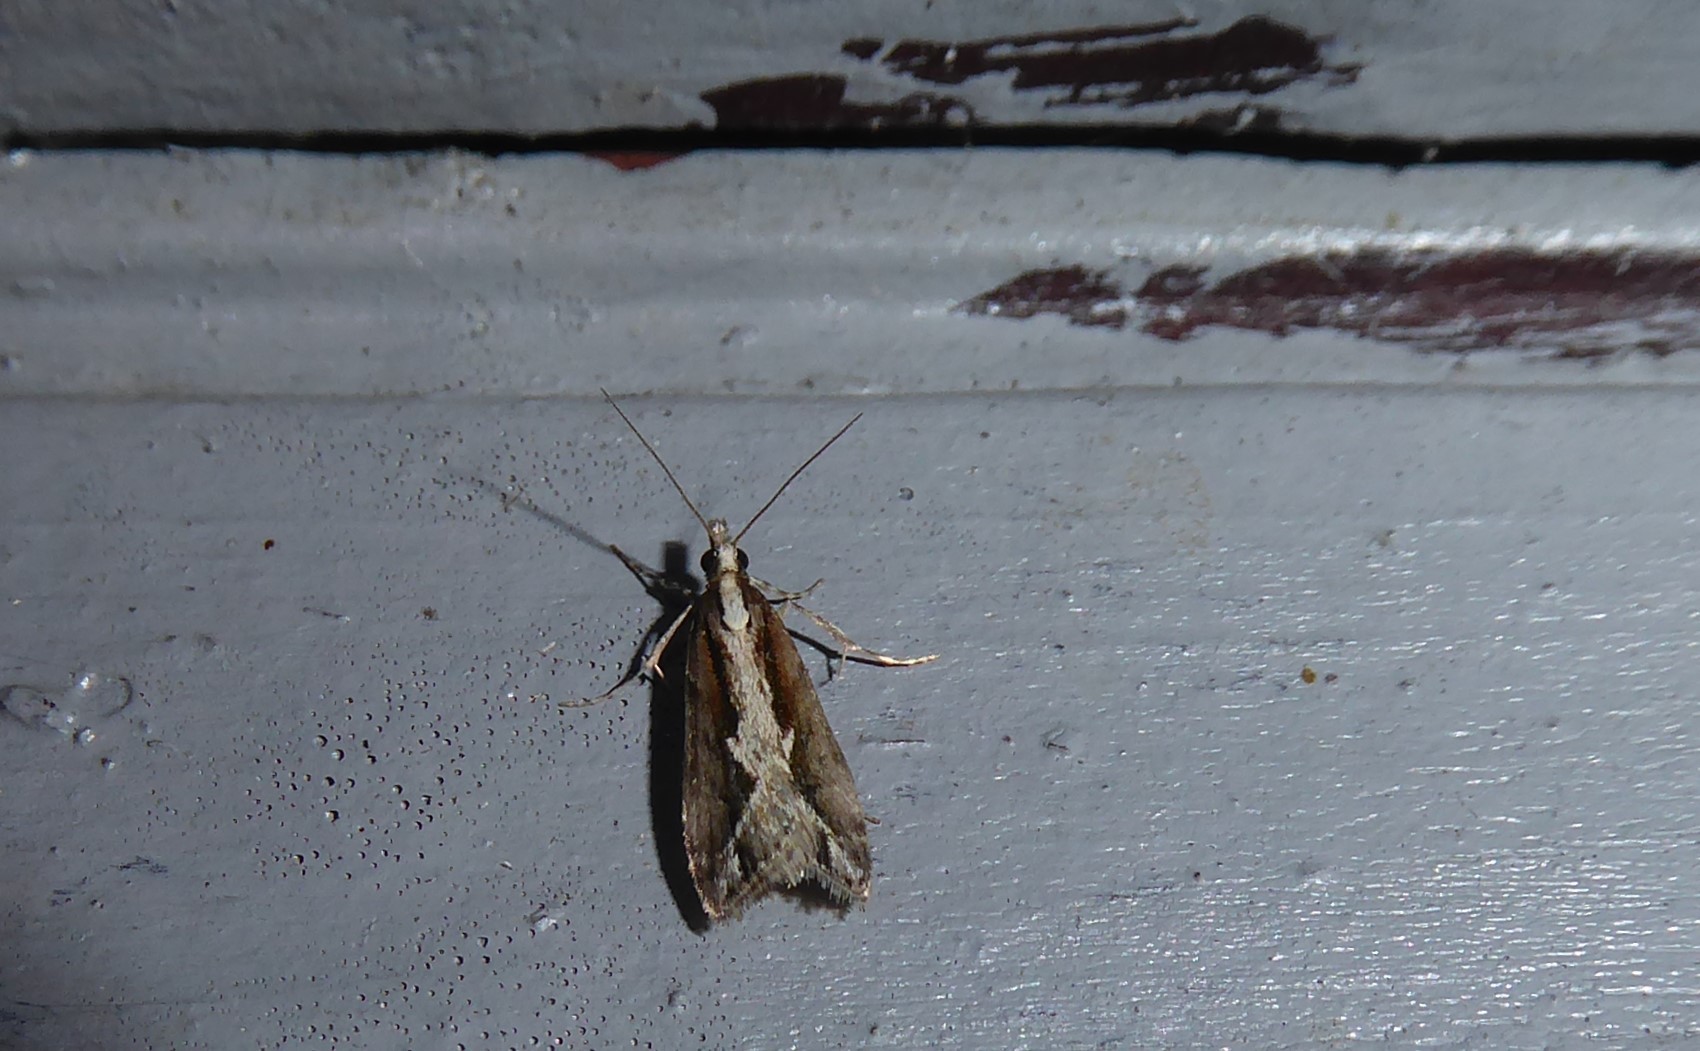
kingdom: Animalia
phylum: Arthropoda
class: Insecta
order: Lepidoptera
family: Crambidae
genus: Eudonia
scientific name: Eudonia steropaea
